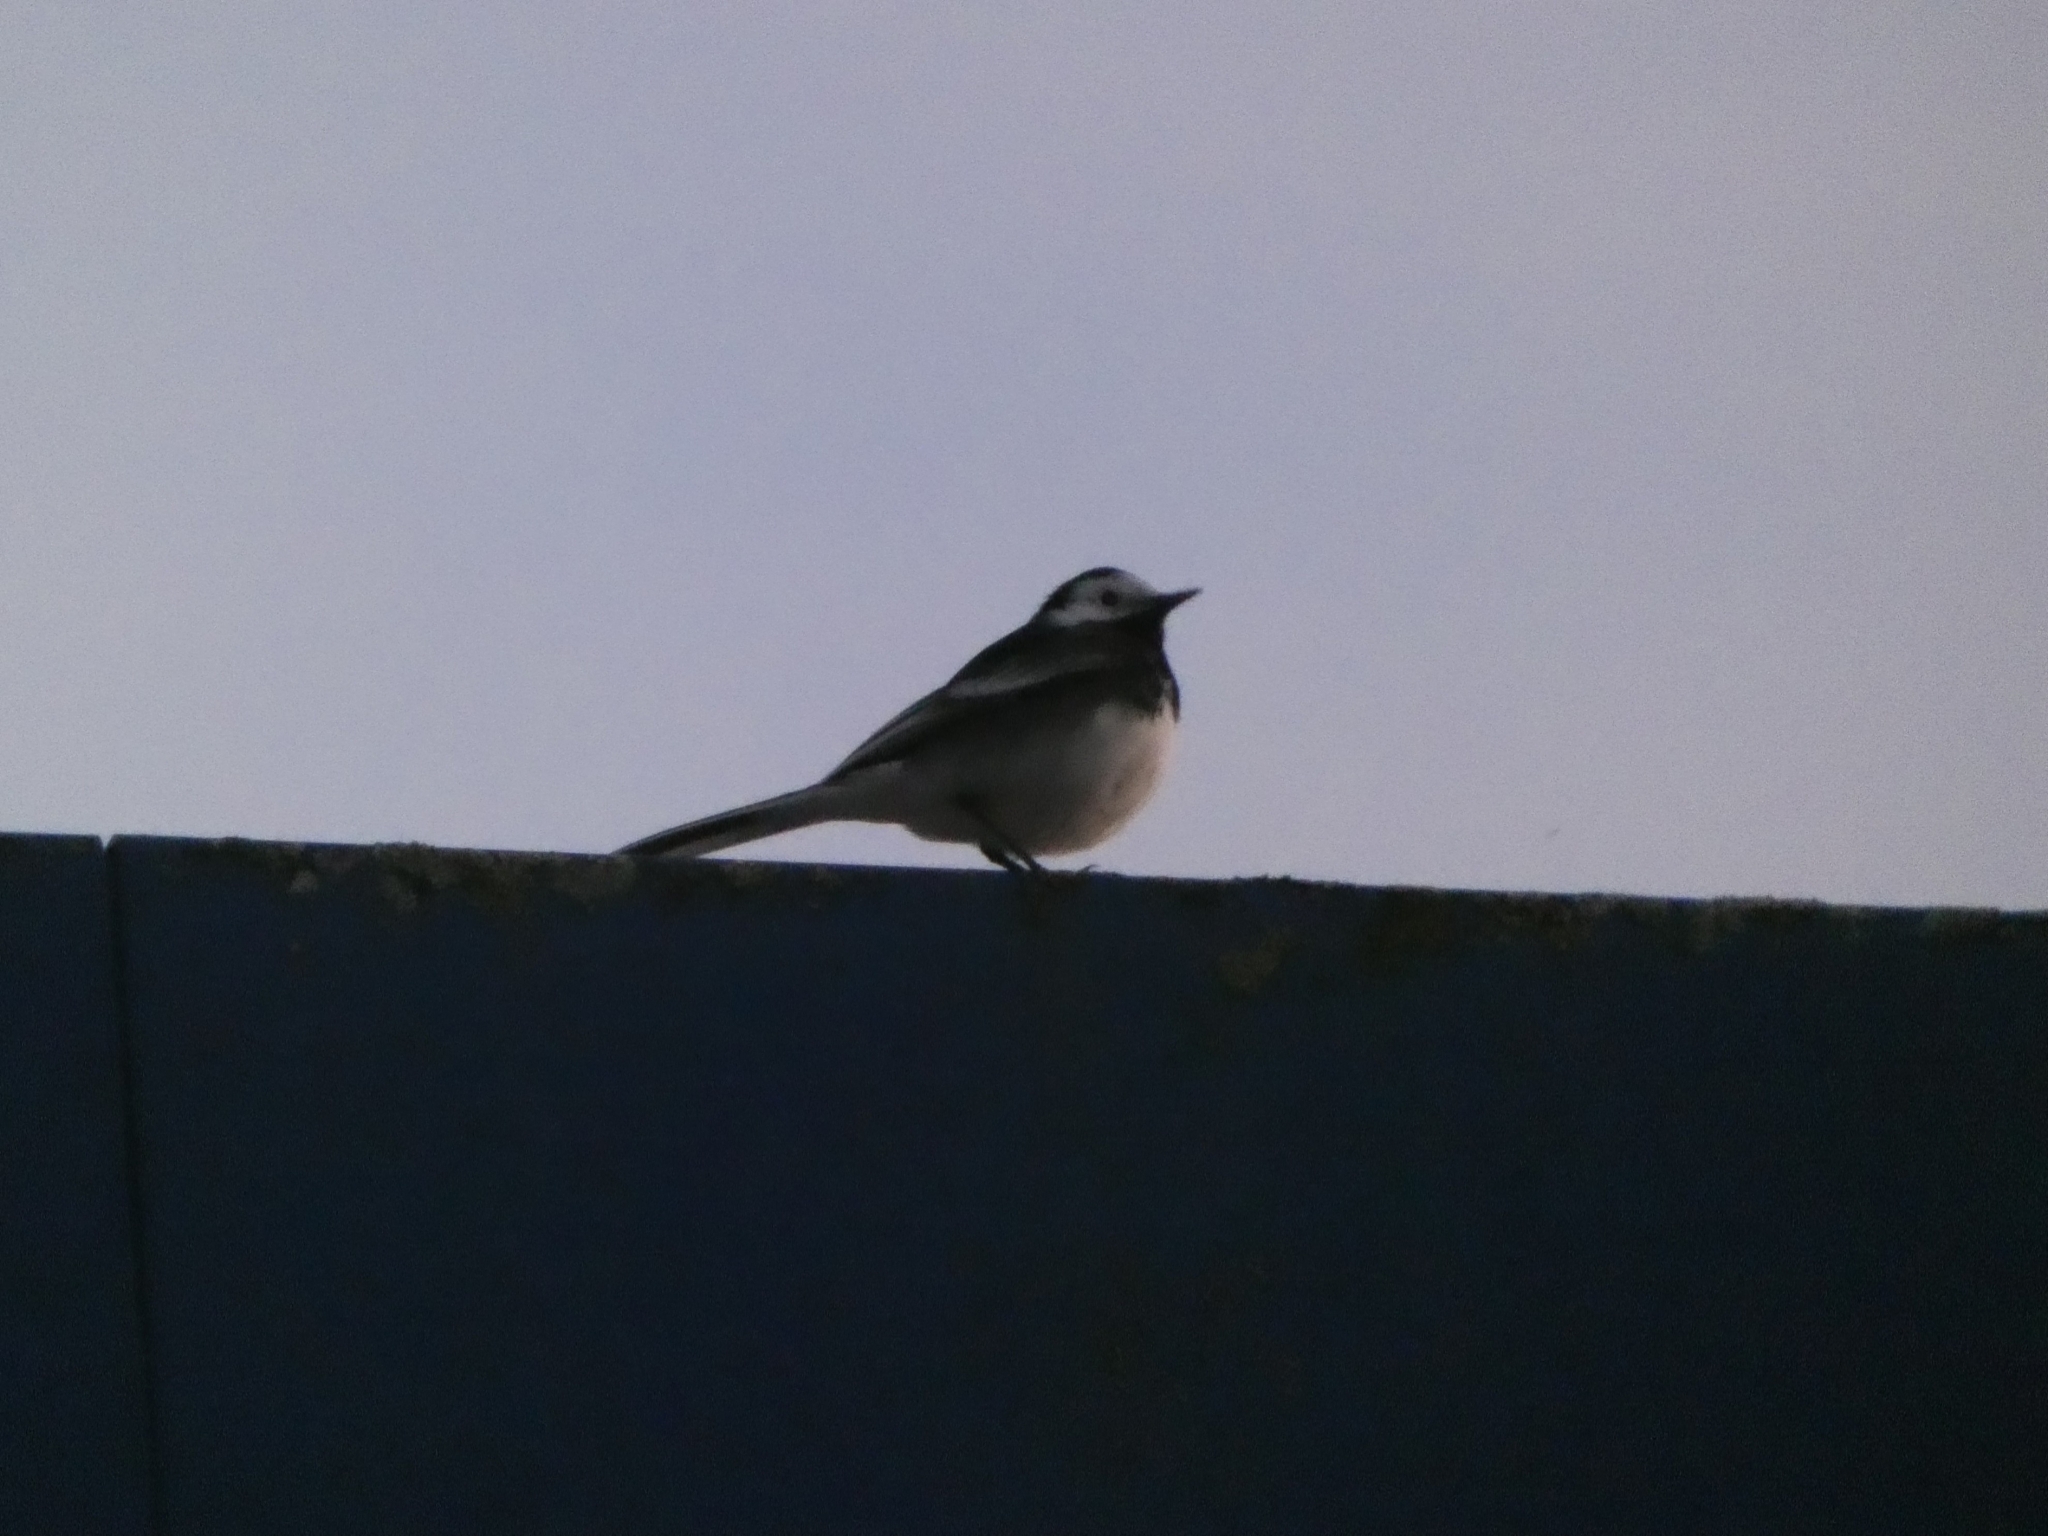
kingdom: Animalia
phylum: Chordata
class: Aves
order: Passeriformes
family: Motacillidae
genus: Motacilla
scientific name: Motacilla alba
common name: White wagtail
